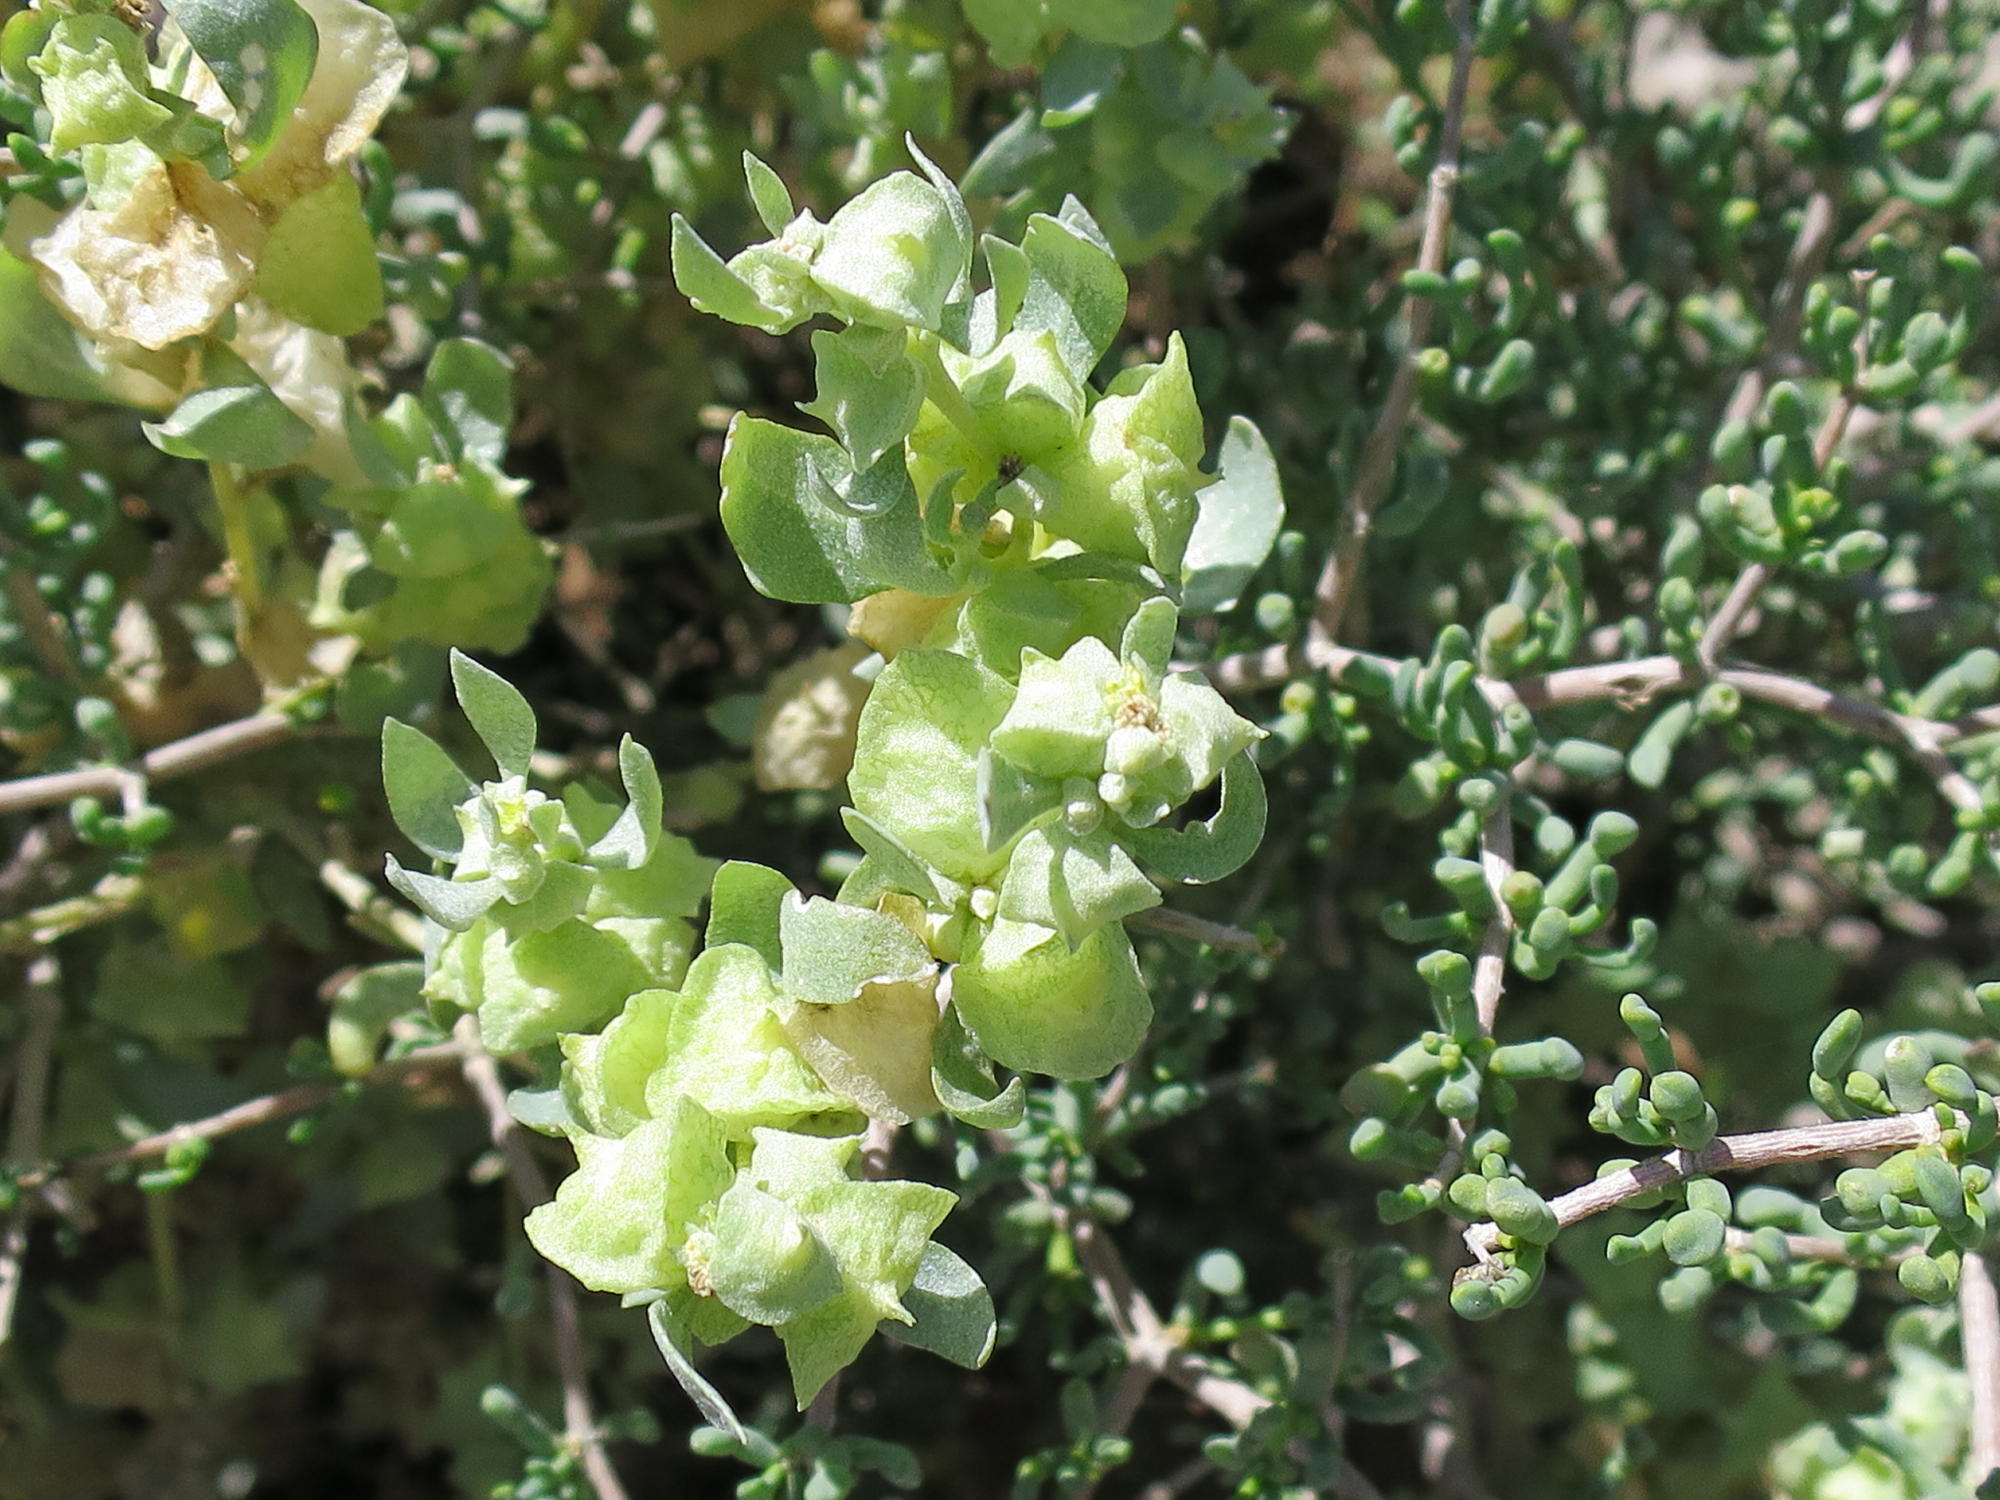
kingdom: Plantae
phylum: Tracheophyta
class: Magnoliopsida
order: Caryophyllales
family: Amaranthaceae
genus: Atriplex
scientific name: Atriplex lindleyi
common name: Lindley's saltbush
